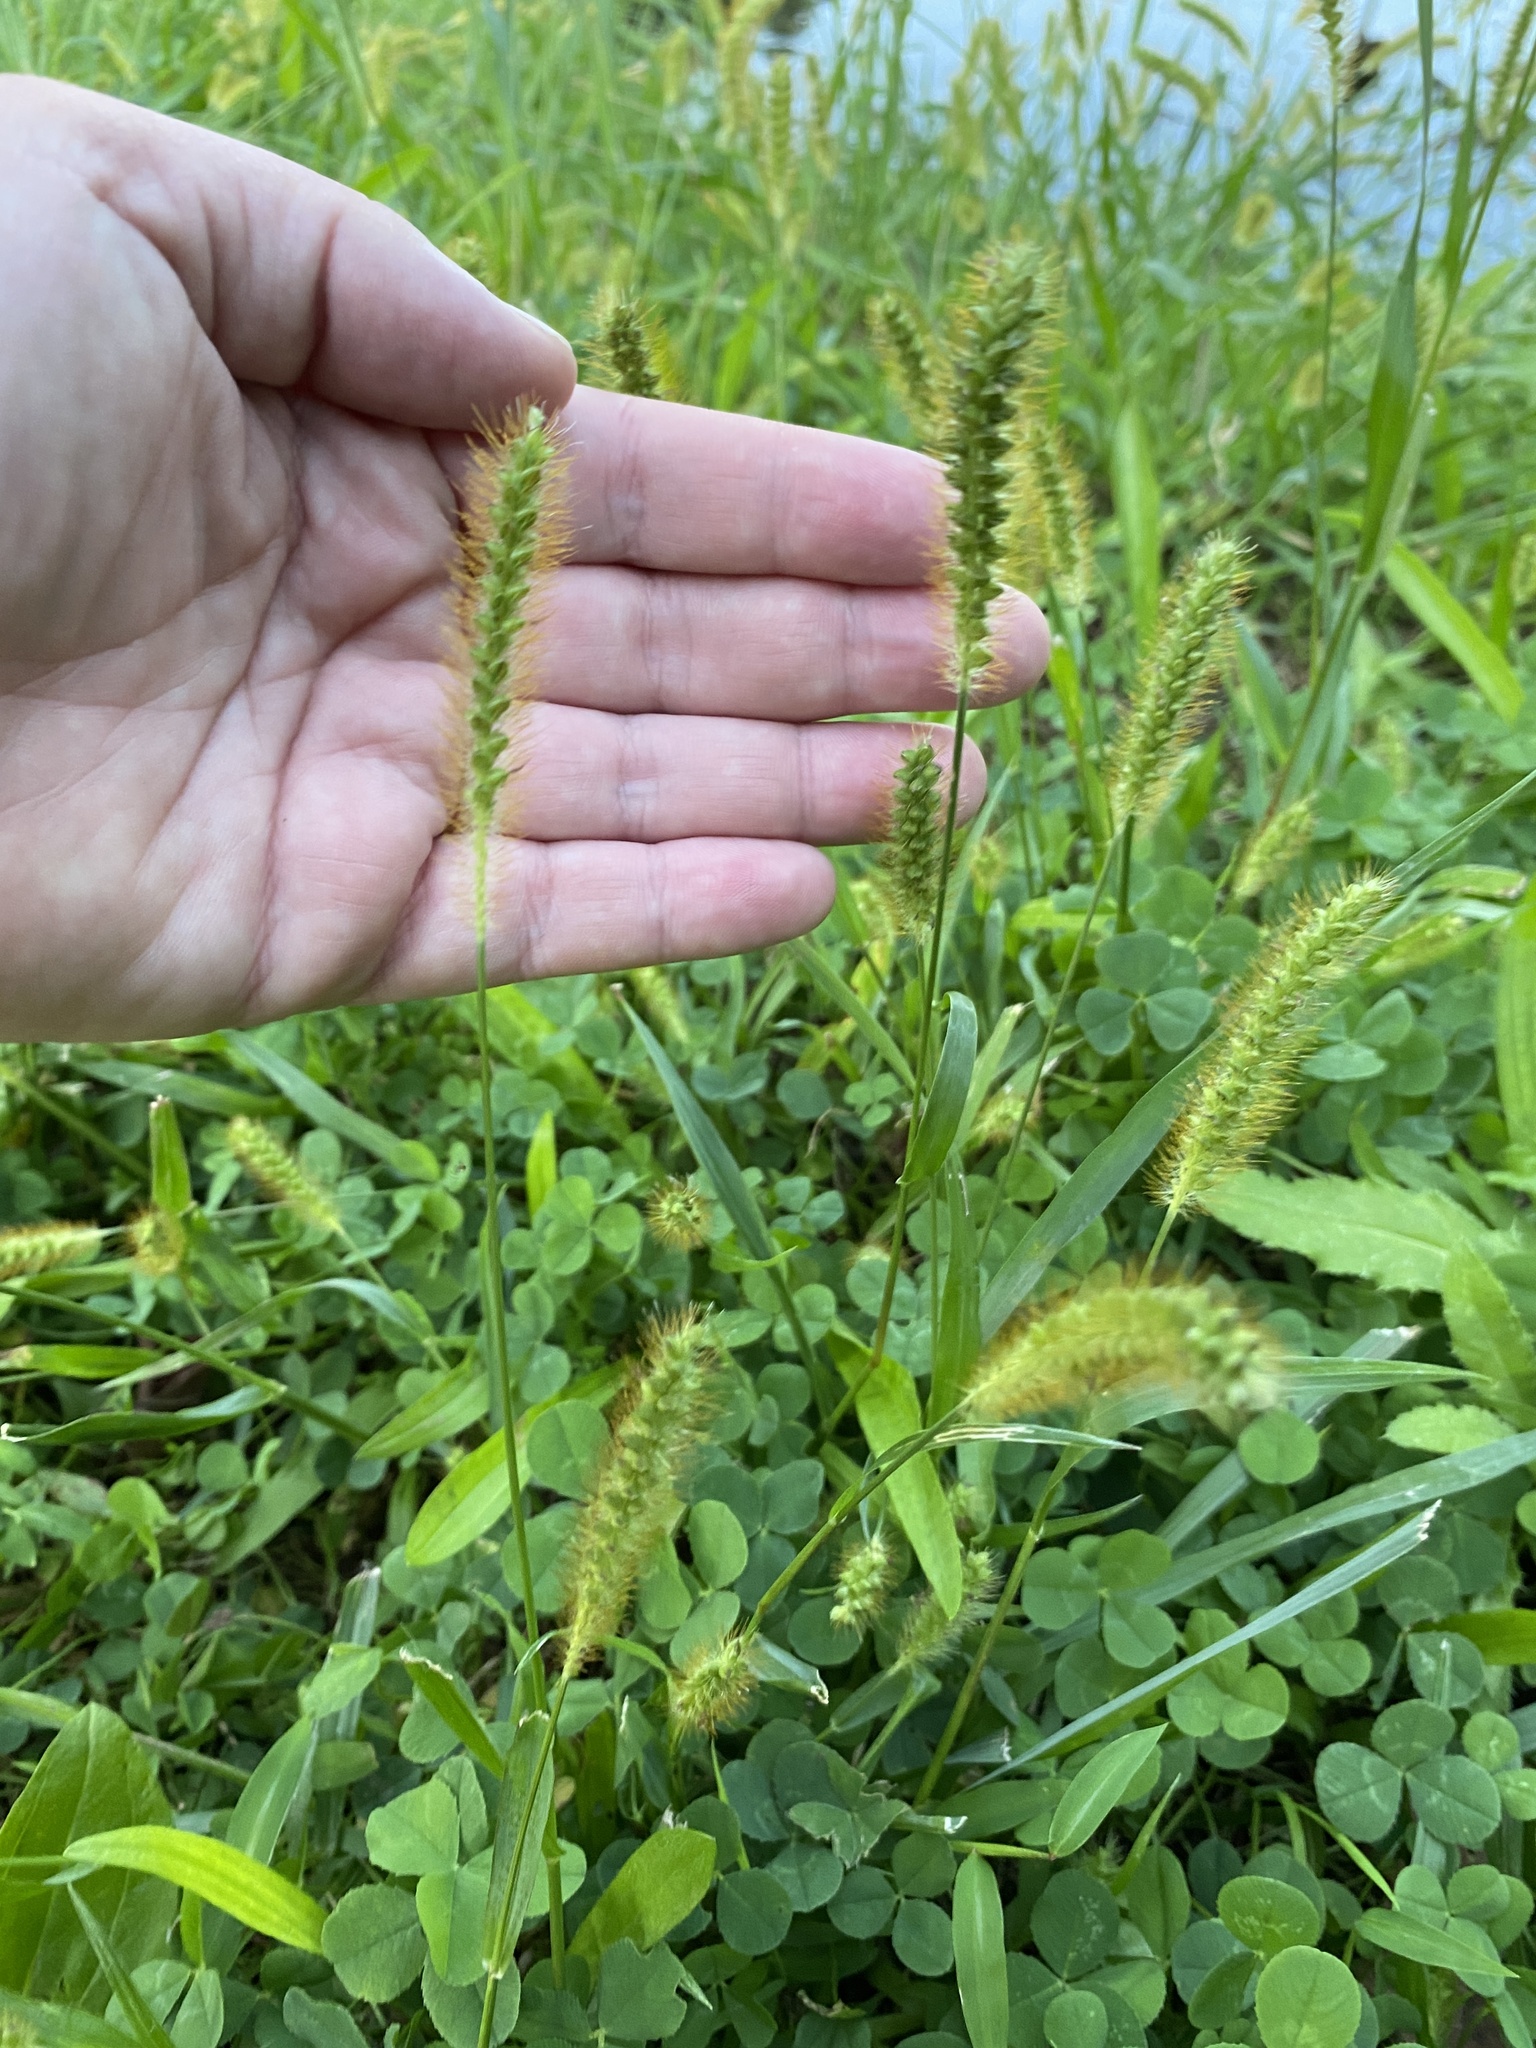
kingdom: Plantae
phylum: Tracheophyta
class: Liliopsida
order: Poales
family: Poaceae
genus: Setaria
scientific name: Setaria pumila
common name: Yellow bristle-grass
